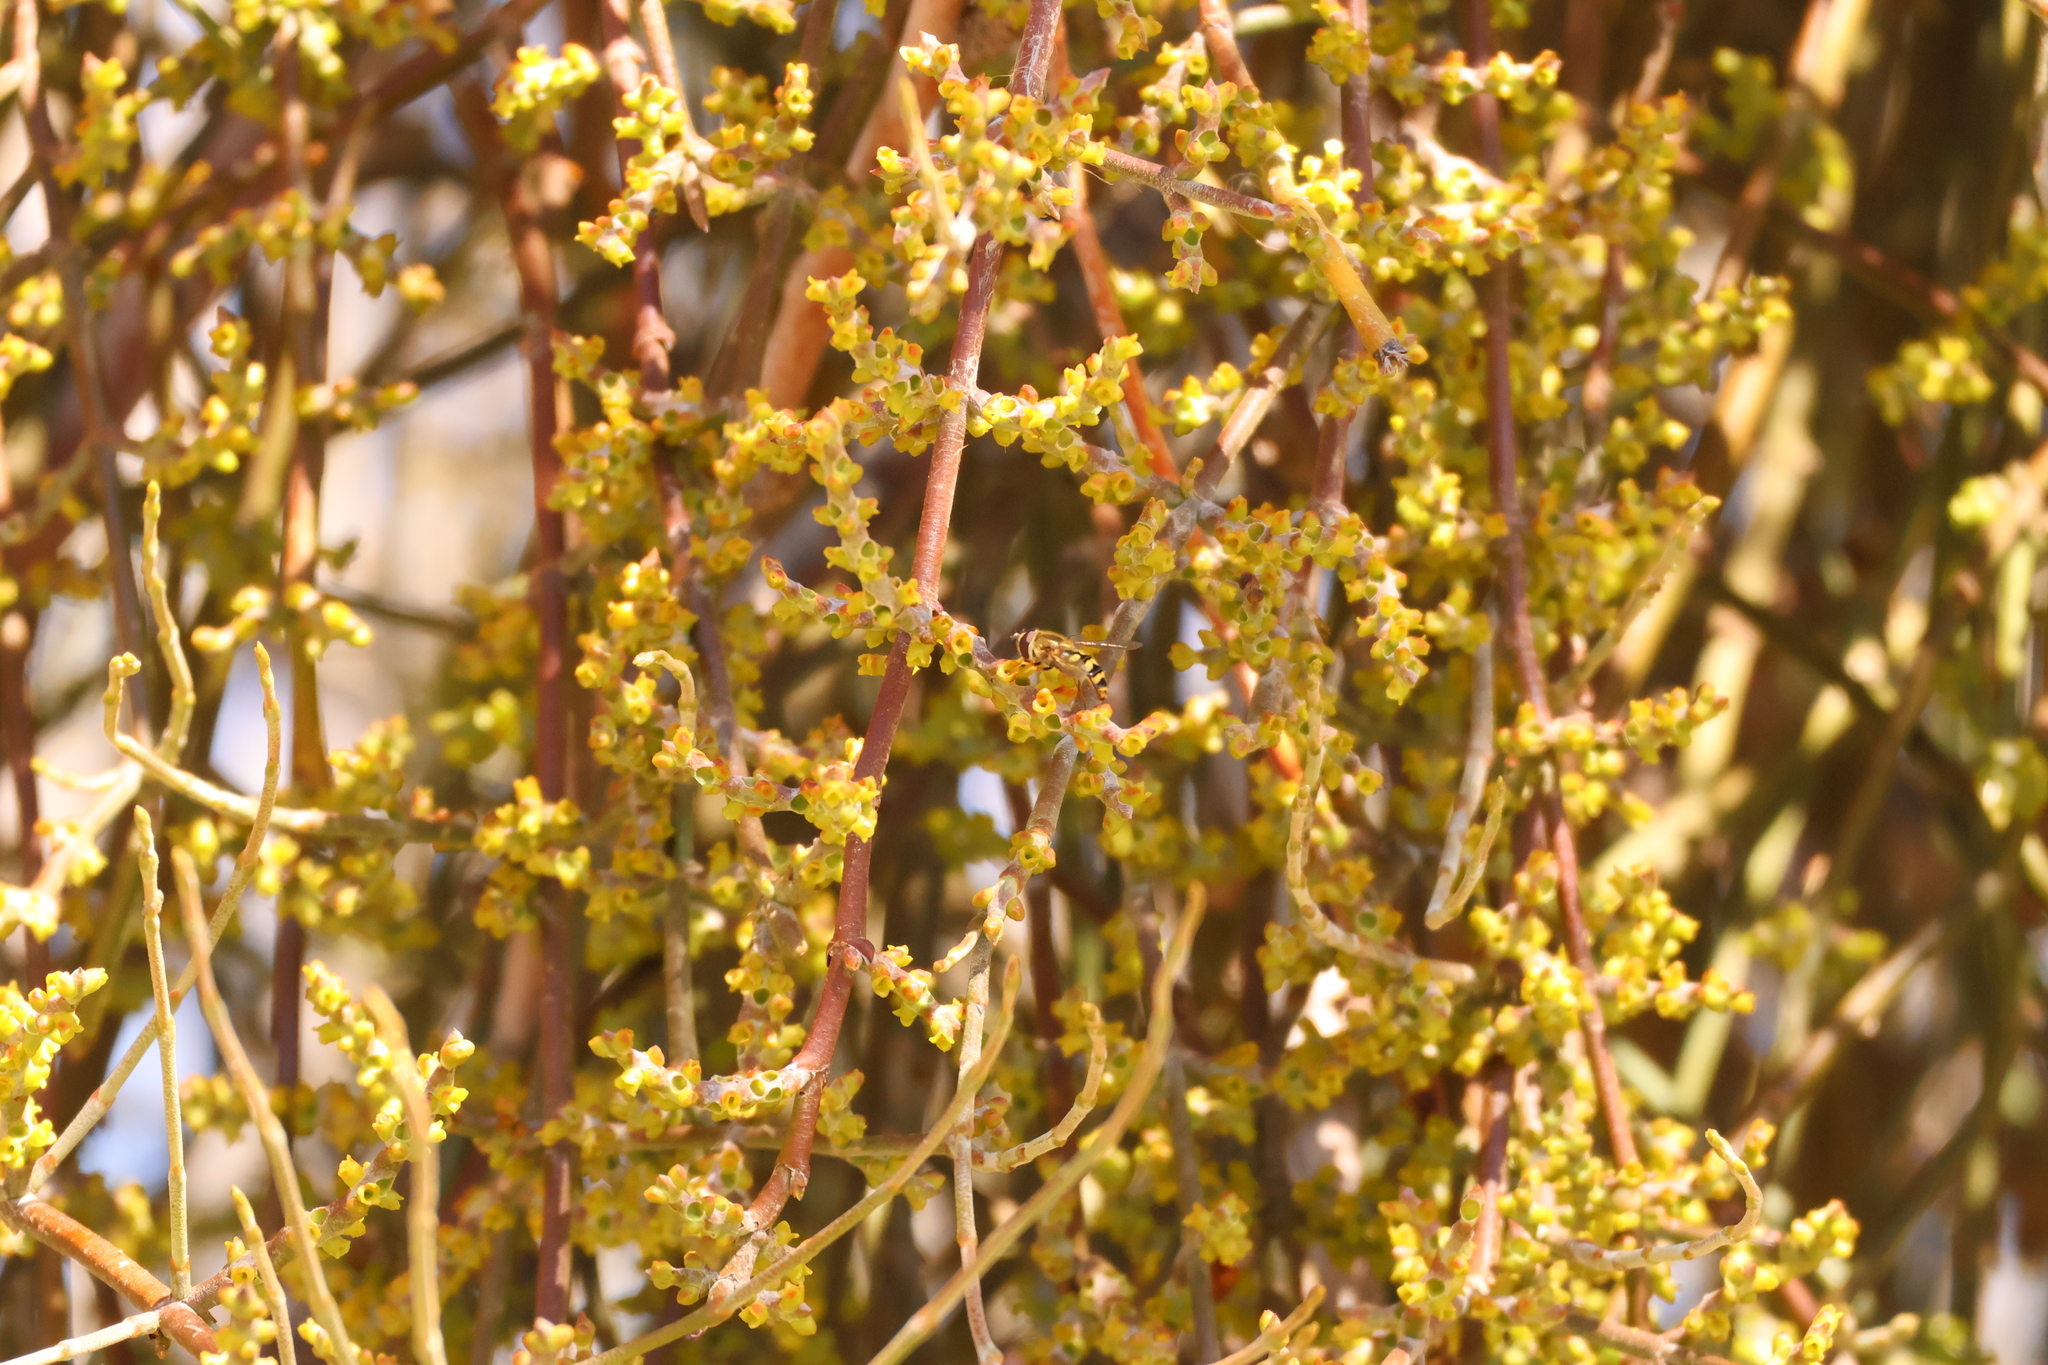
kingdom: Plantae
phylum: Tracheophyta
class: Magnoliopsida
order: Santalales
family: Viscaceae
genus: Phoradendron
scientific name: Phoradendron californicum
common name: Acacia mistletoe
